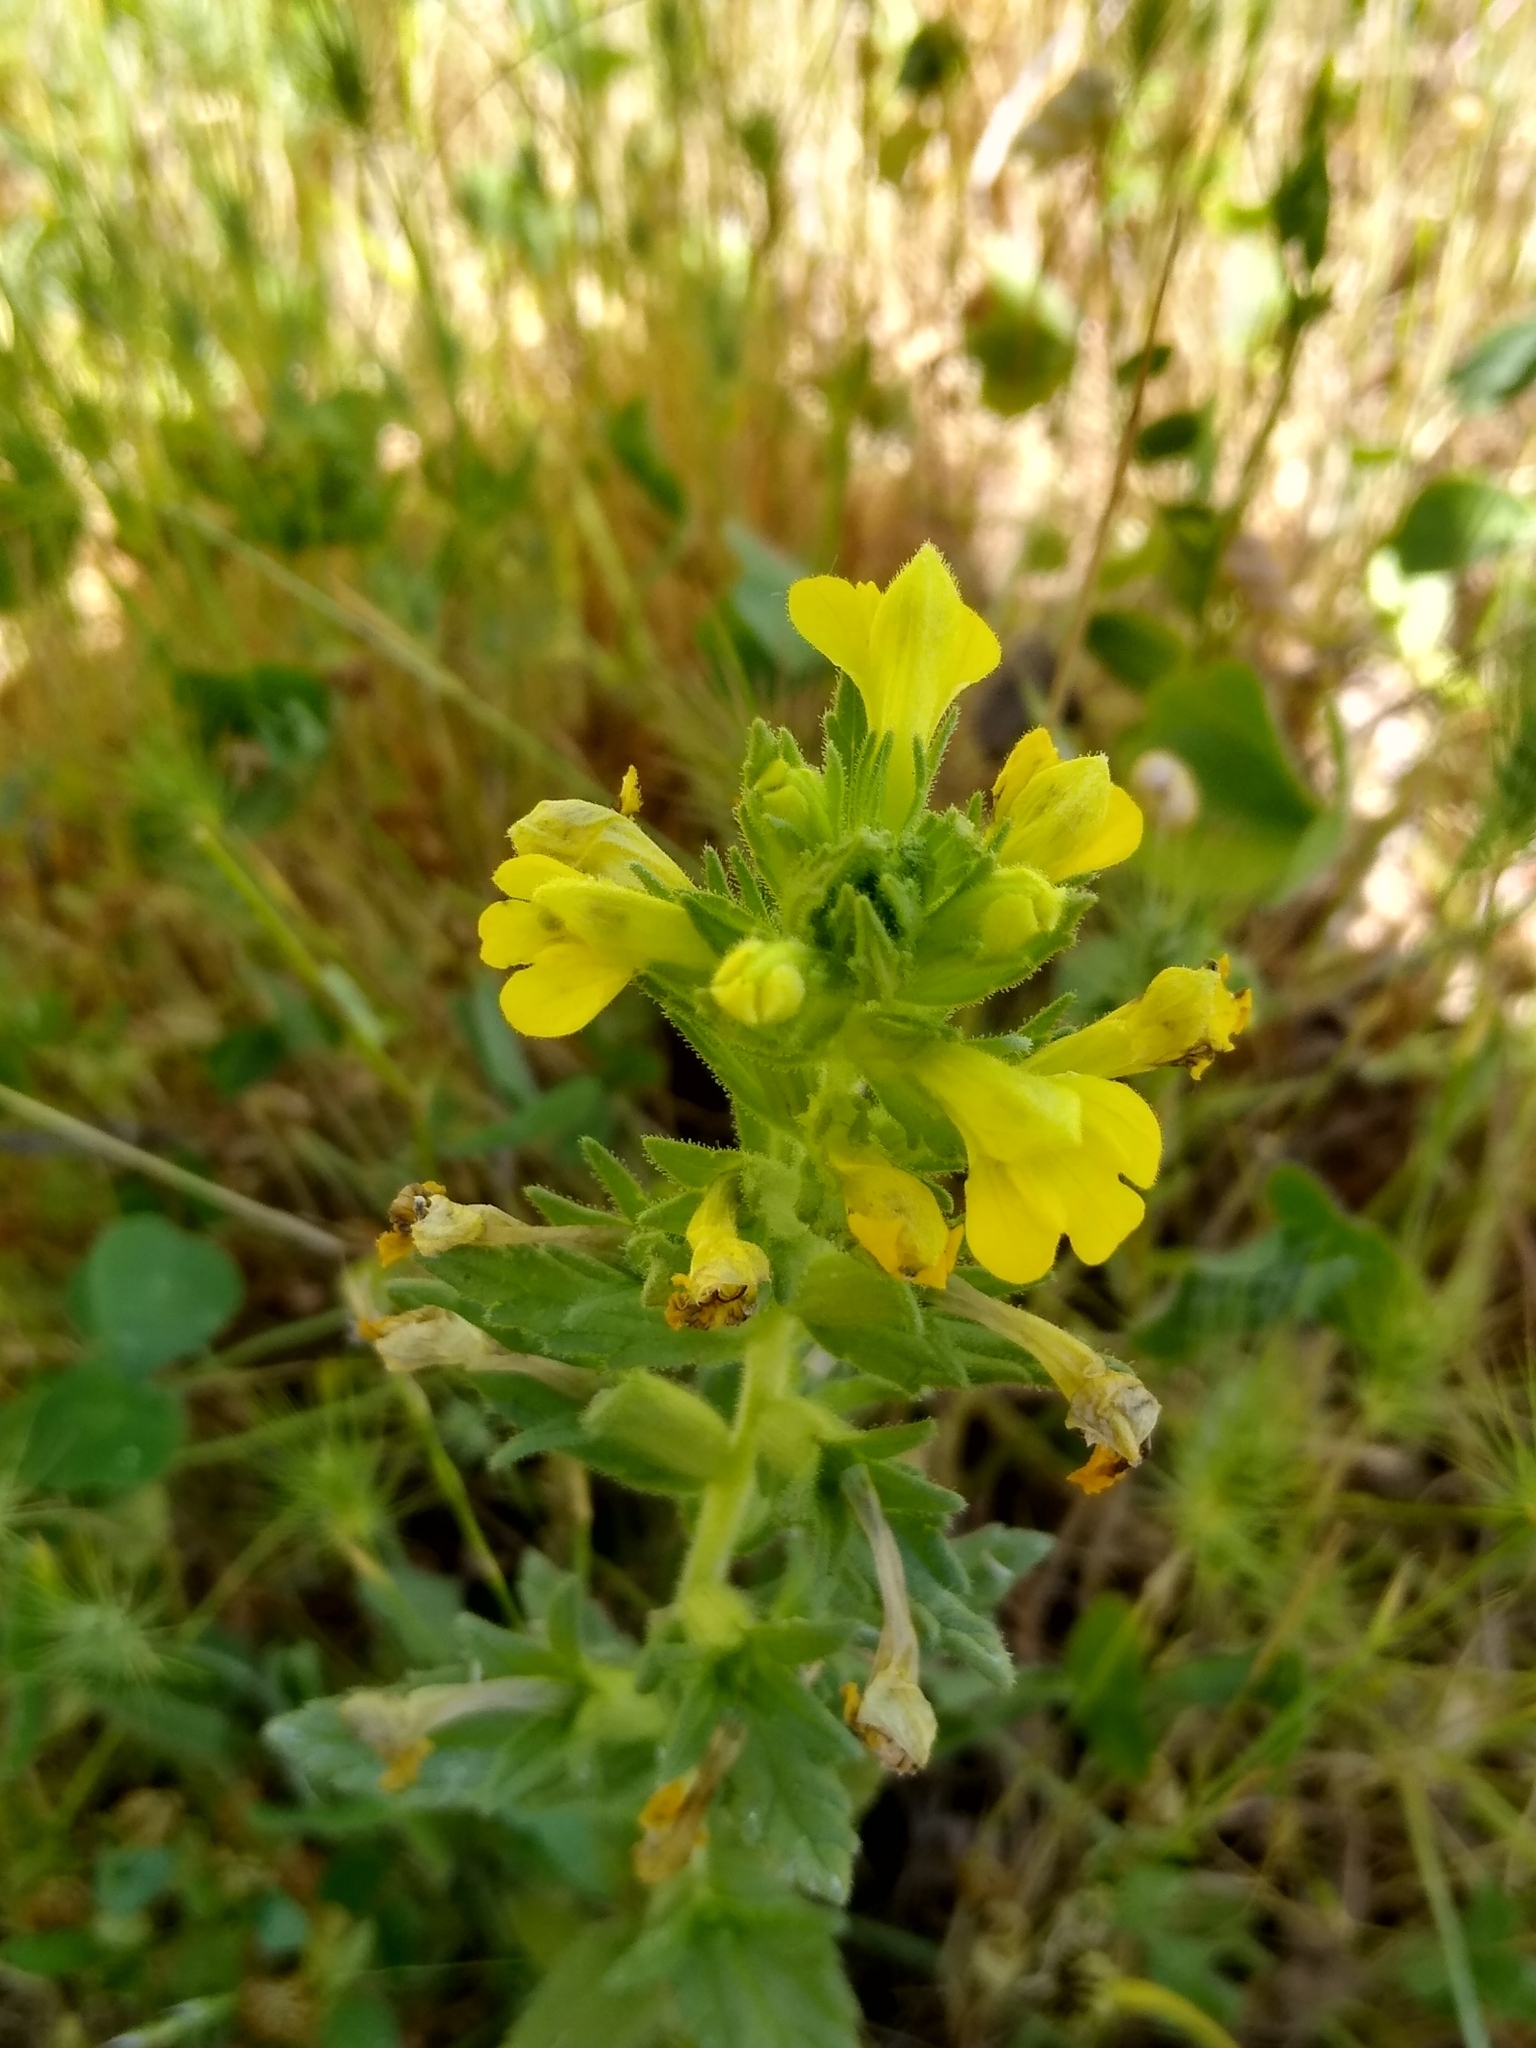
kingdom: Plantae
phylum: Tracheophyta
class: Magnoliopsida
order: Lamiales
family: Orobanchaceae
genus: Bellardia
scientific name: Bellardia viscosa
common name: Sticky parentucellia
